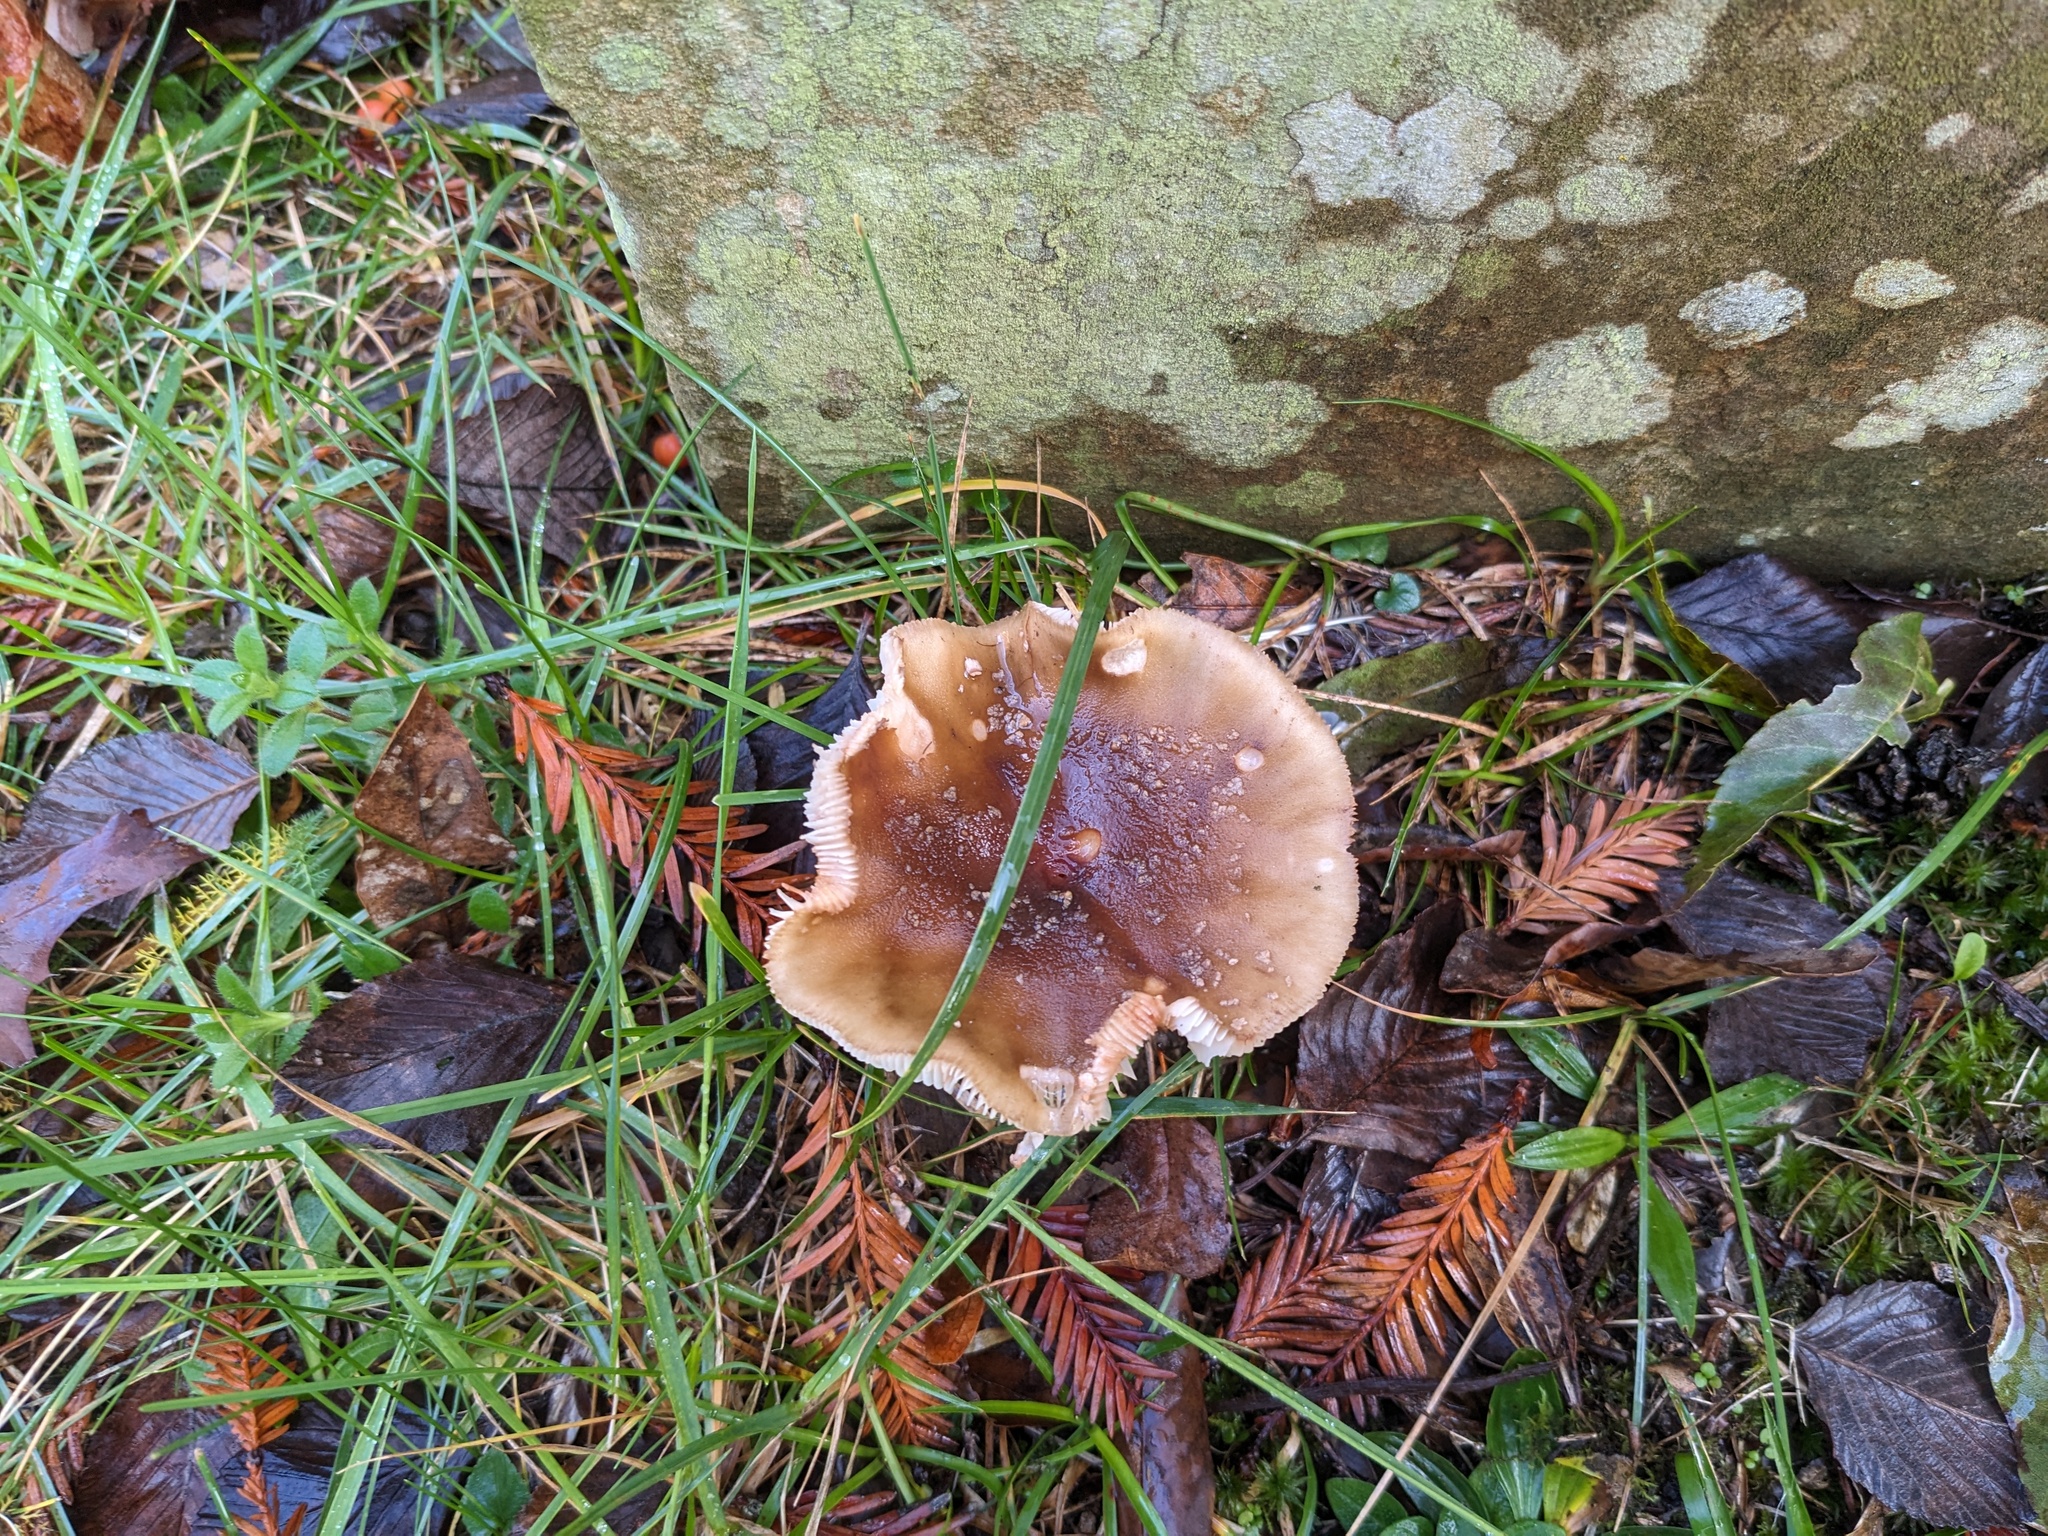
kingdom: Fungi
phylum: Basidiomycota
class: Agaricomycetes
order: Agaricales
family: Amanitaceae
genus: Amanita
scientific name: Amanita rubescens
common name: Blusher
